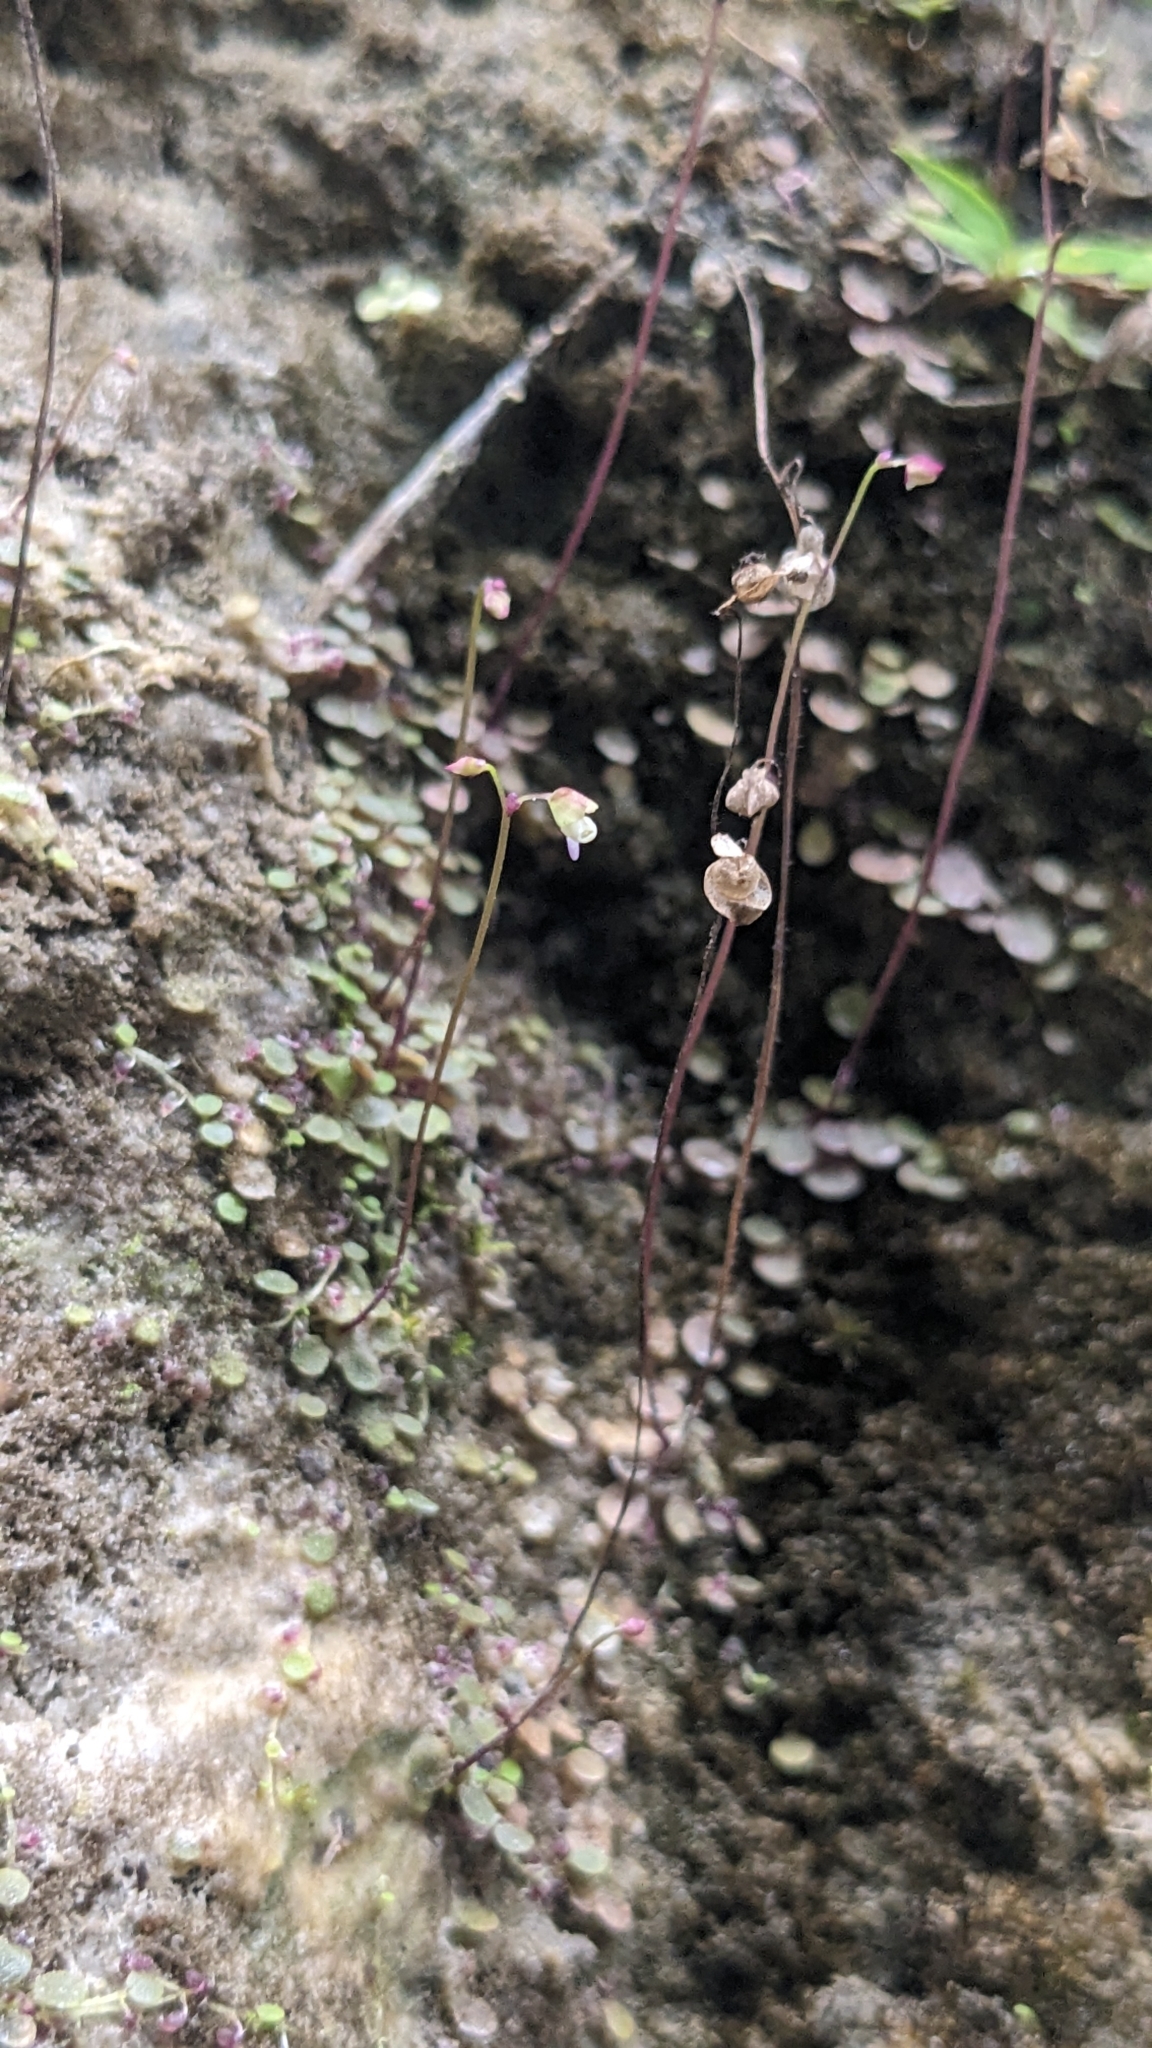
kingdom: Plantae
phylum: Tracheophyta
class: Magnoliopsida
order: Lamiales
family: Lentibulariaceae
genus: Utricularia
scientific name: Utricularia striatula
